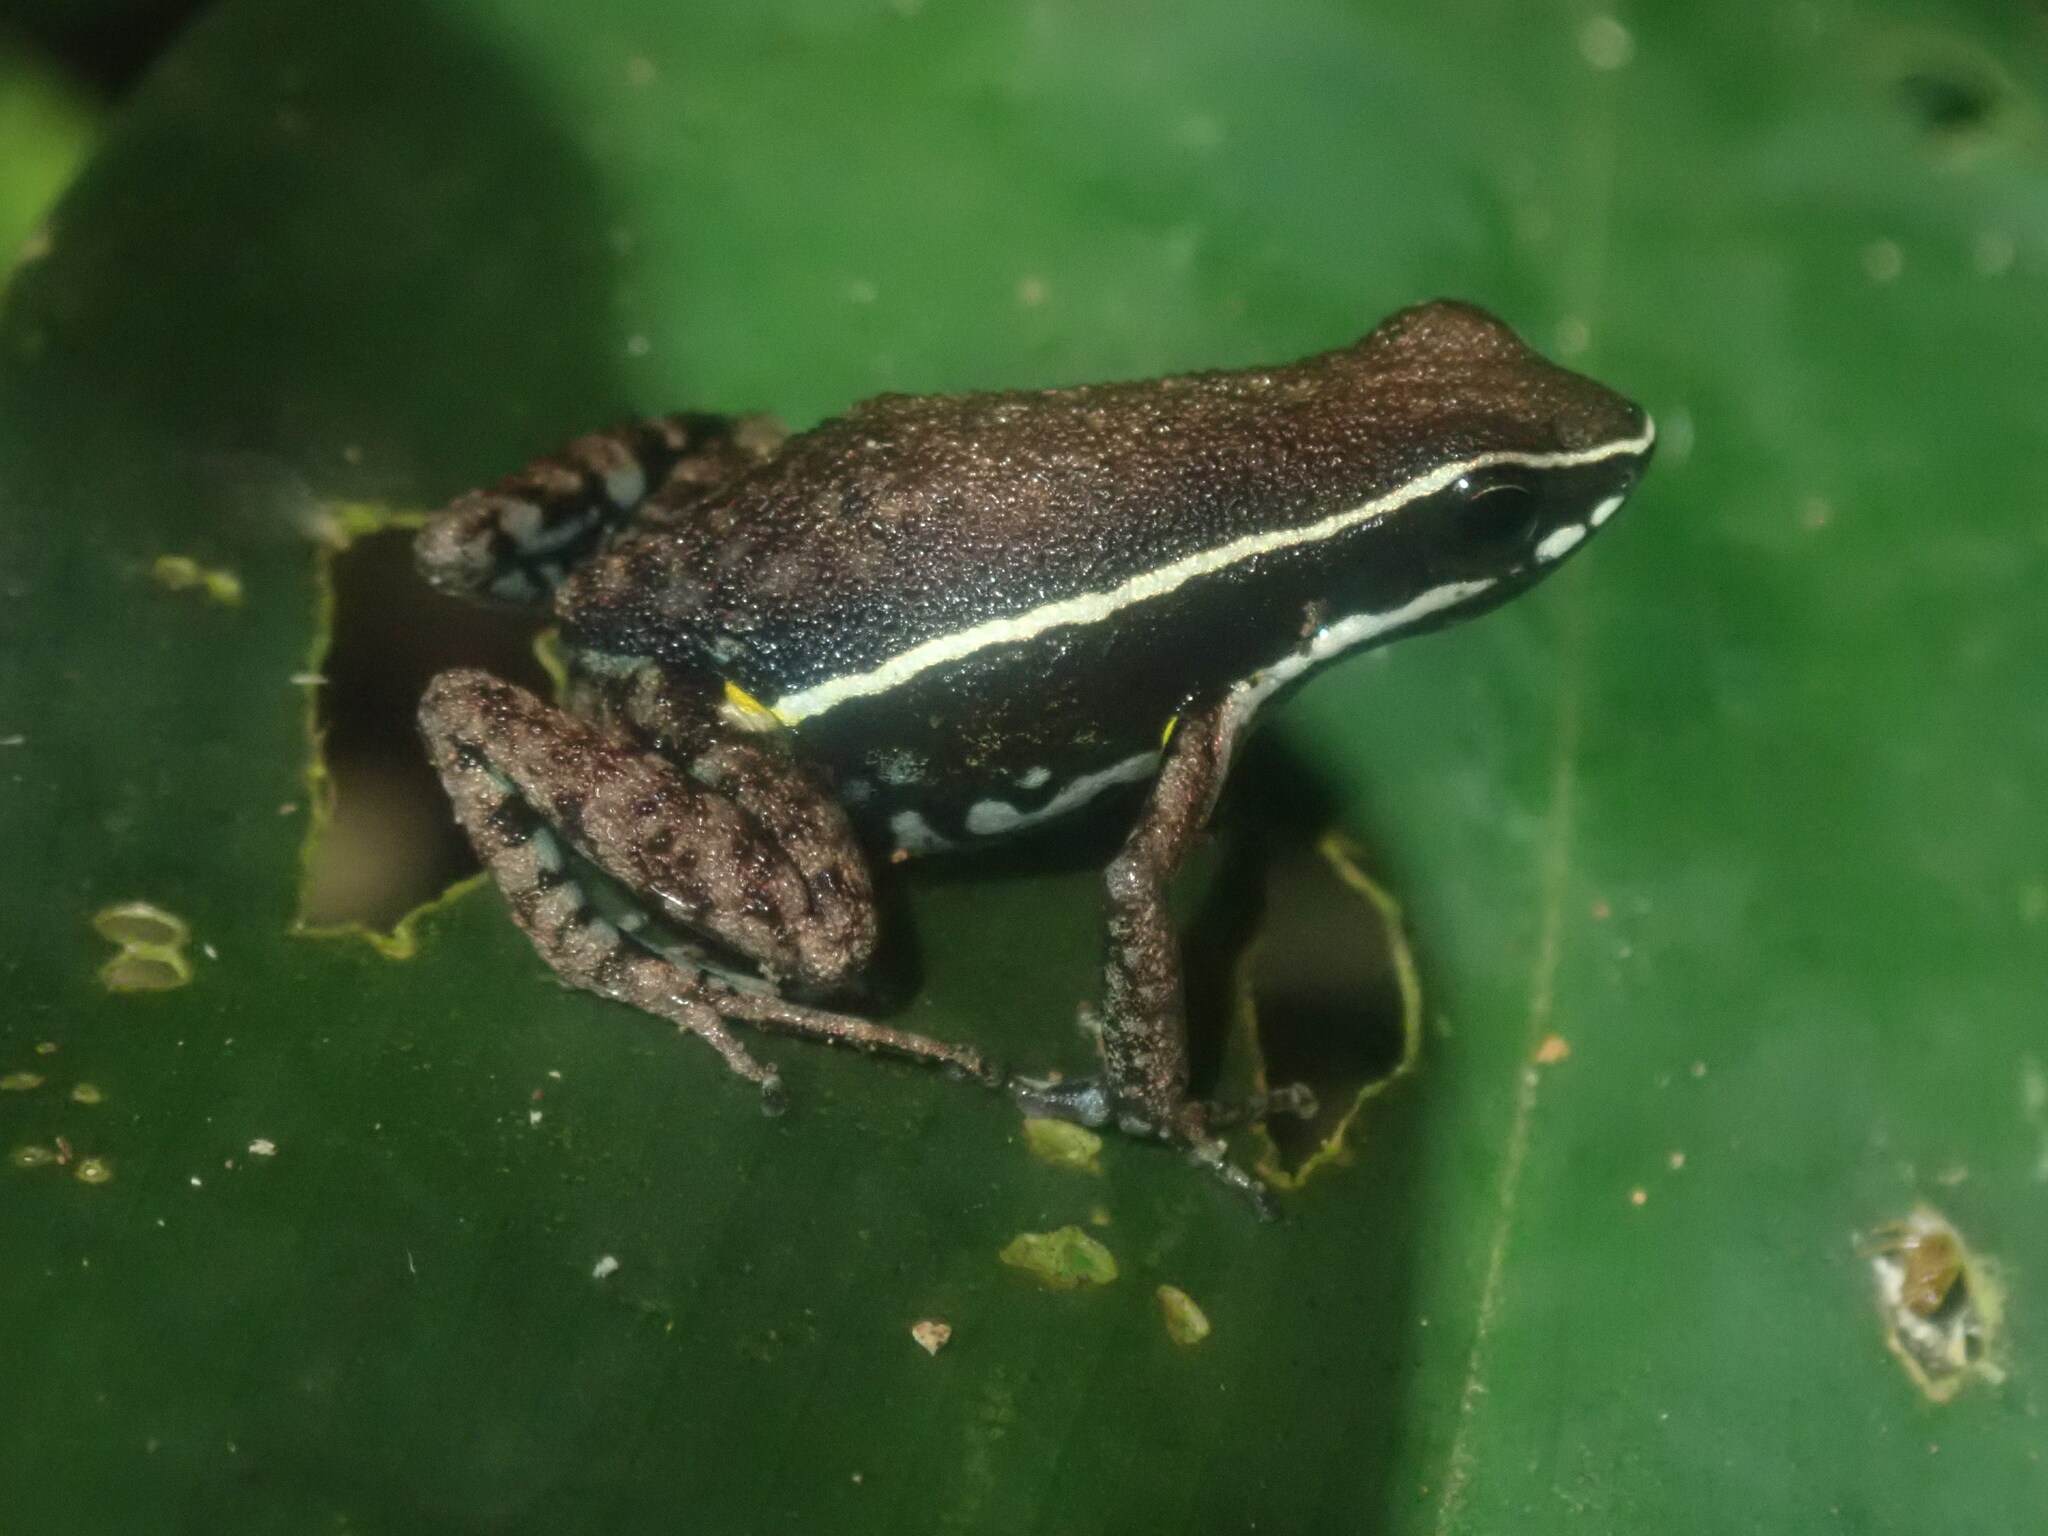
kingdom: Animalia
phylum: Chordata
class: Amphibia
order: Anura
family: Dendrobatidae
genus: Ameerega
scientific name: Ameerega hahneli
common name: Yurimaguas pioson frog
